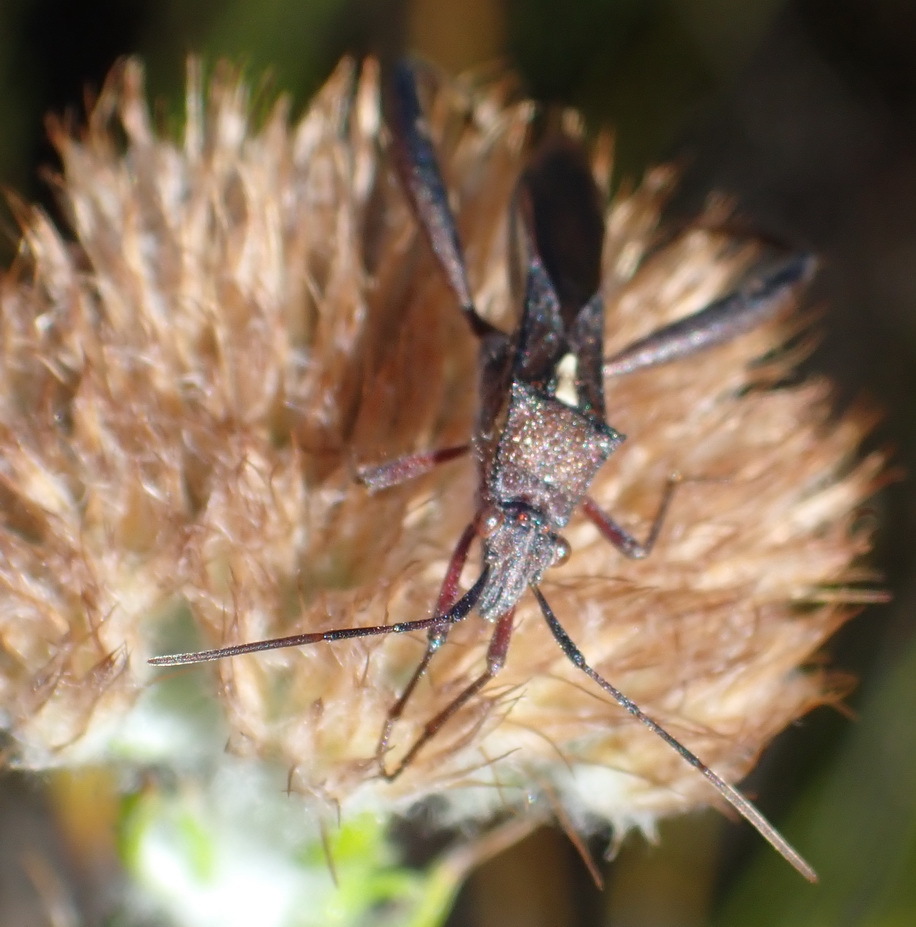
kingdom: Animalia
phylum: Arthropoda
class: Insecta
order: Hemiptera
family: Alydidae
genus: Mirperus
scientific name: Mirperus jaculus
